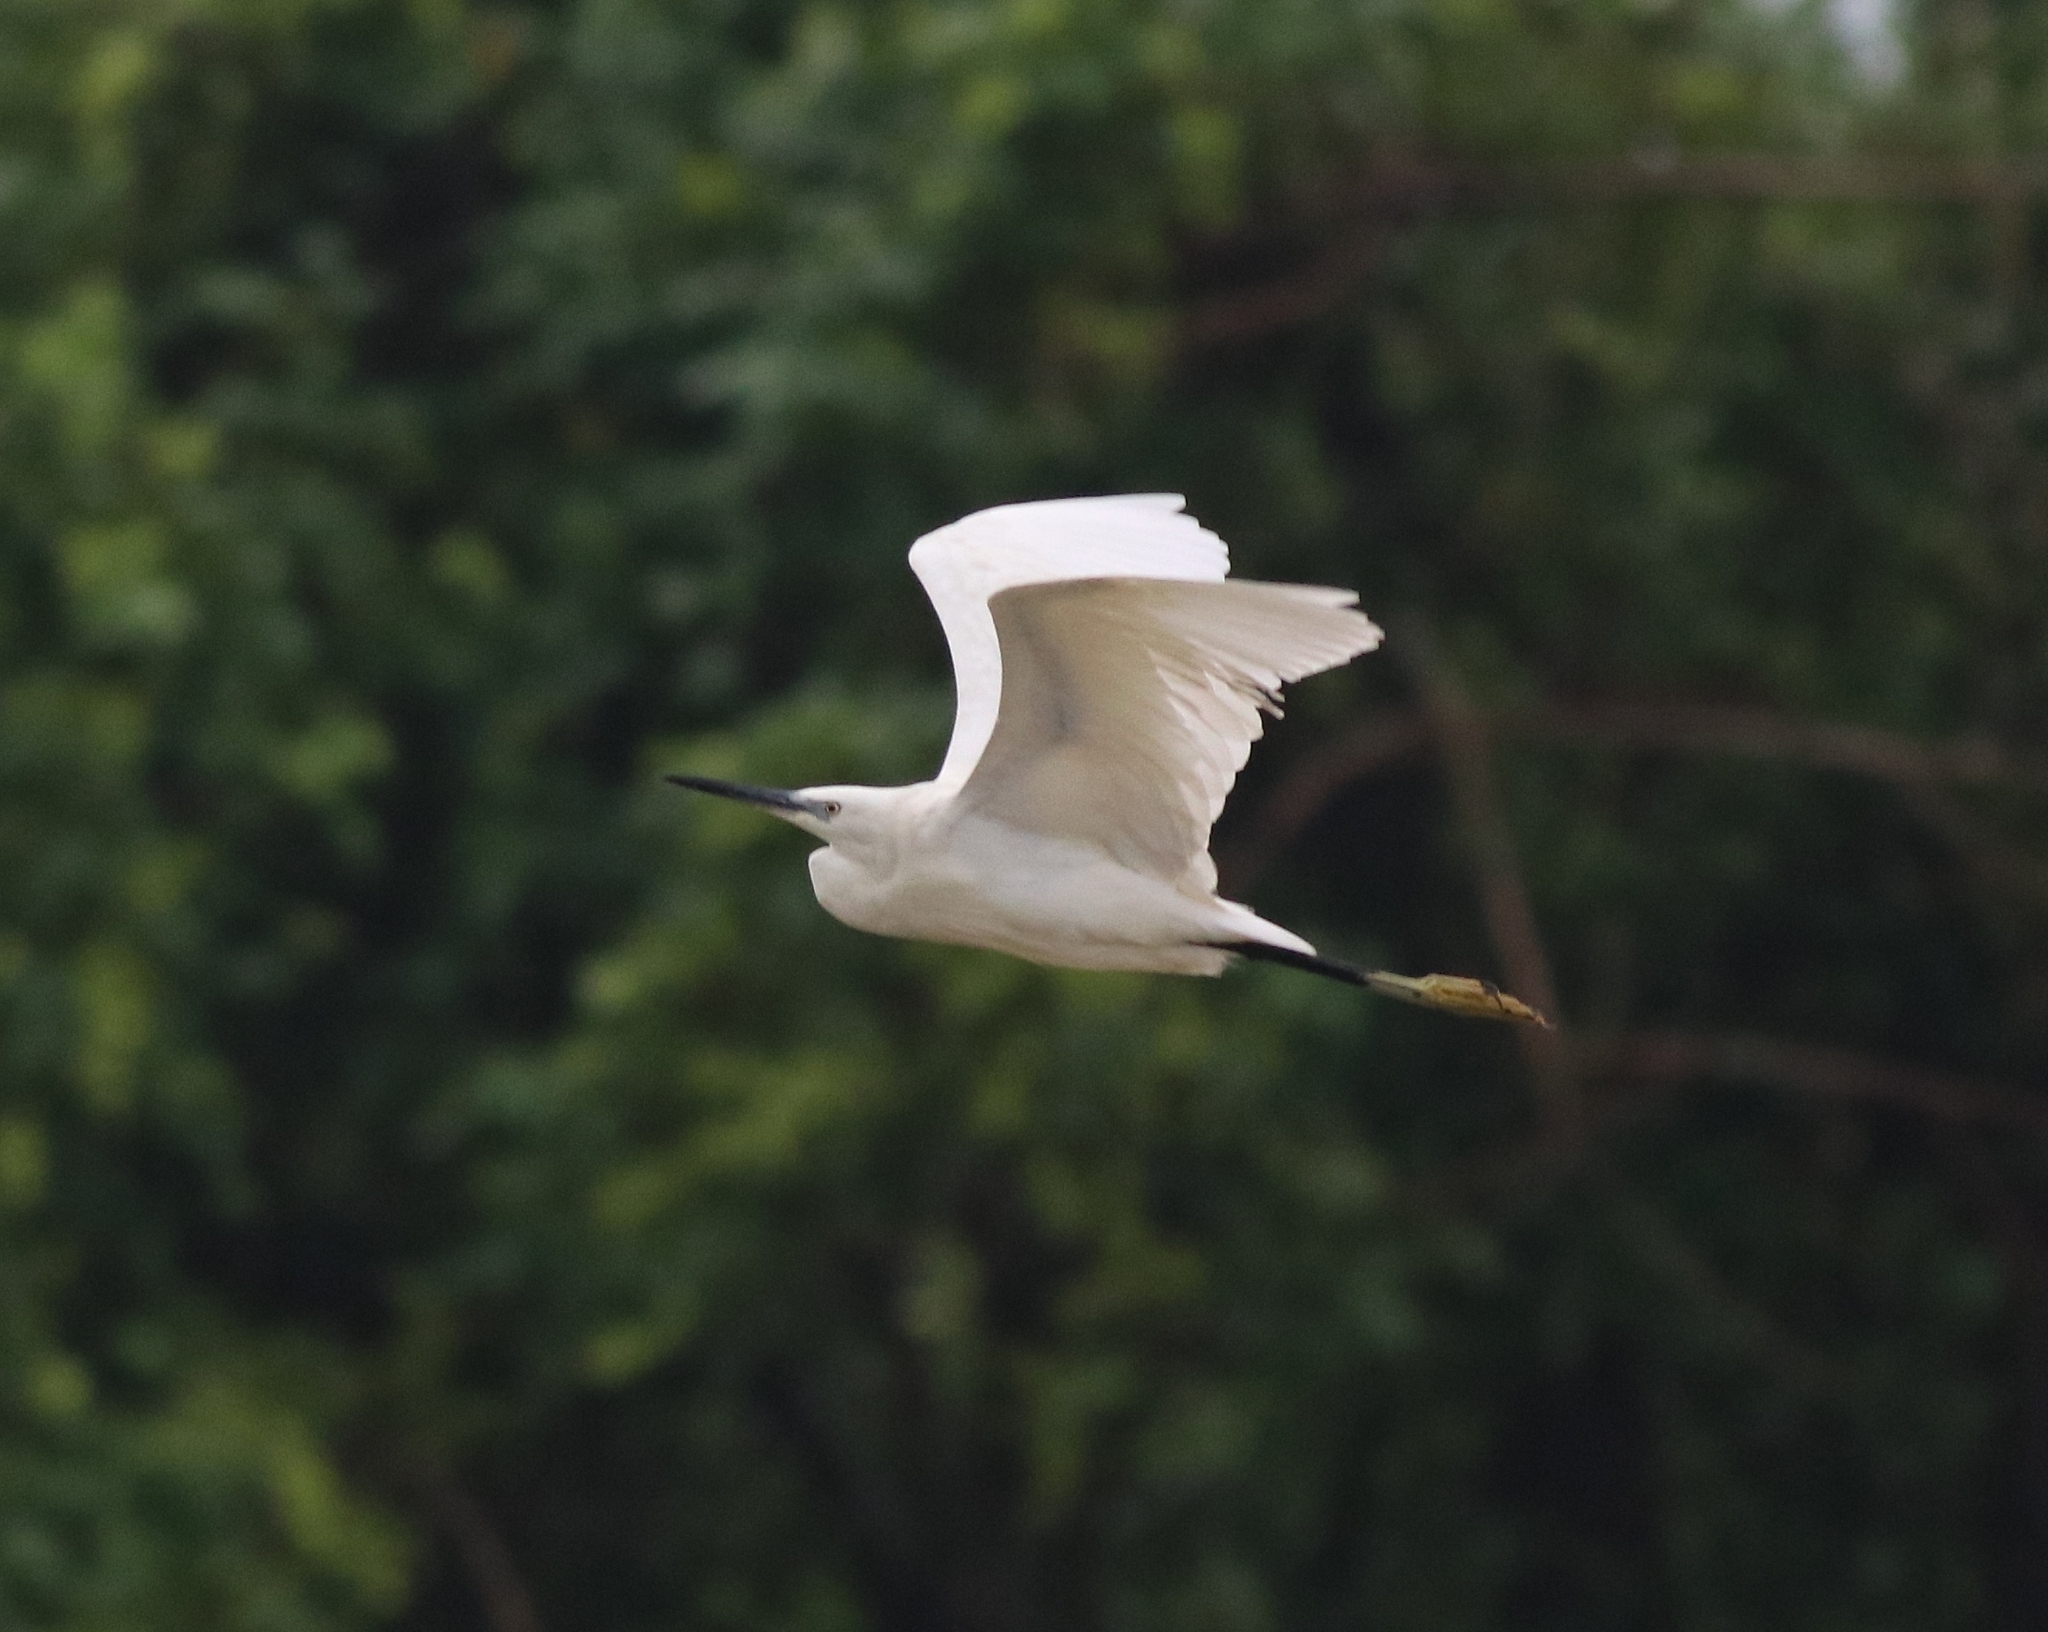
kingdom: Animalia
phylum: Chordata
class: Aves
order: Pelecaniformes
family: Ardeidae
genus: Egretta
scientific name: Egretta garzetta
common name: Little egret
